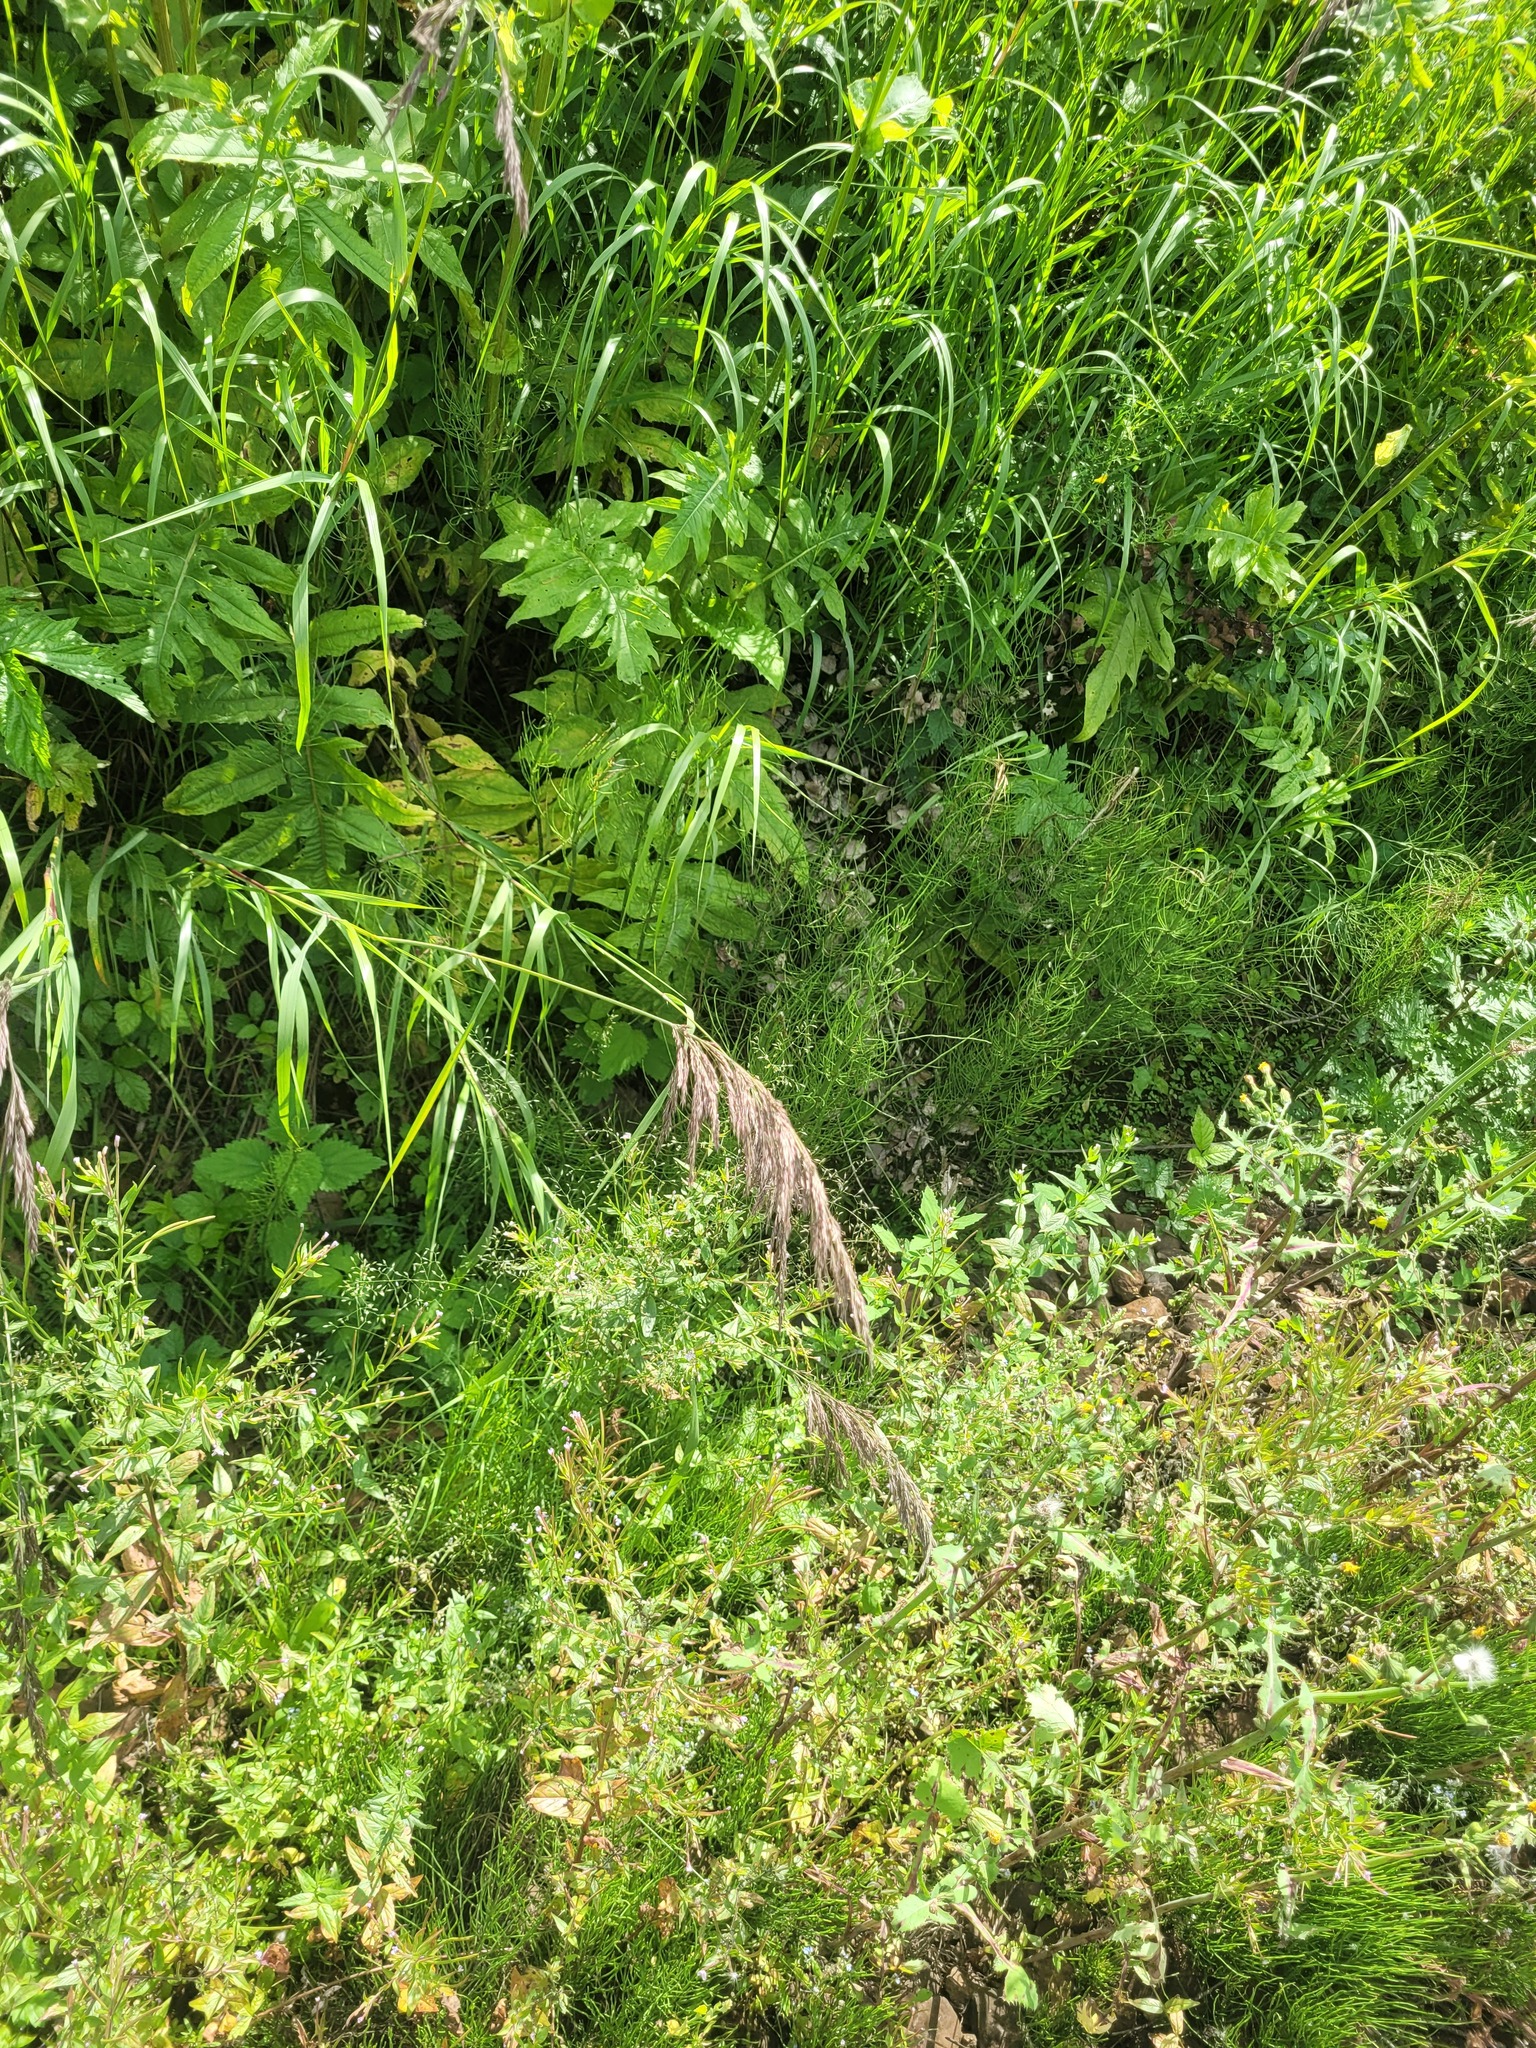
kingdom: Plantae
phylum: Tracheophyta
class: Liliopsida
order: Poales
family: Poaceae
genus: Phragmites
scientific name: Phragmites australis
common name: Common reed
